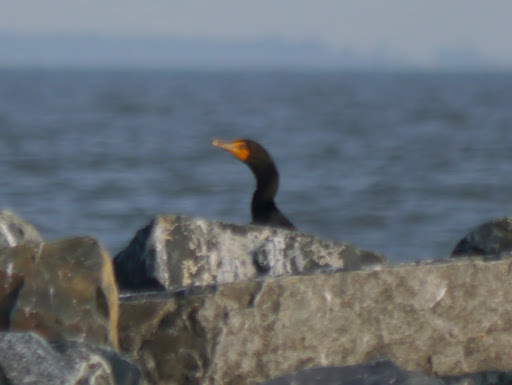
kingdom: Animalia
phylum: Chordata
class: Aves
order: Suliformes
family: Phalacrocoracidae
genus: Phalacrocorax
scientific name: Phalacrocorax auritus
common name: Double-crested cormorant
